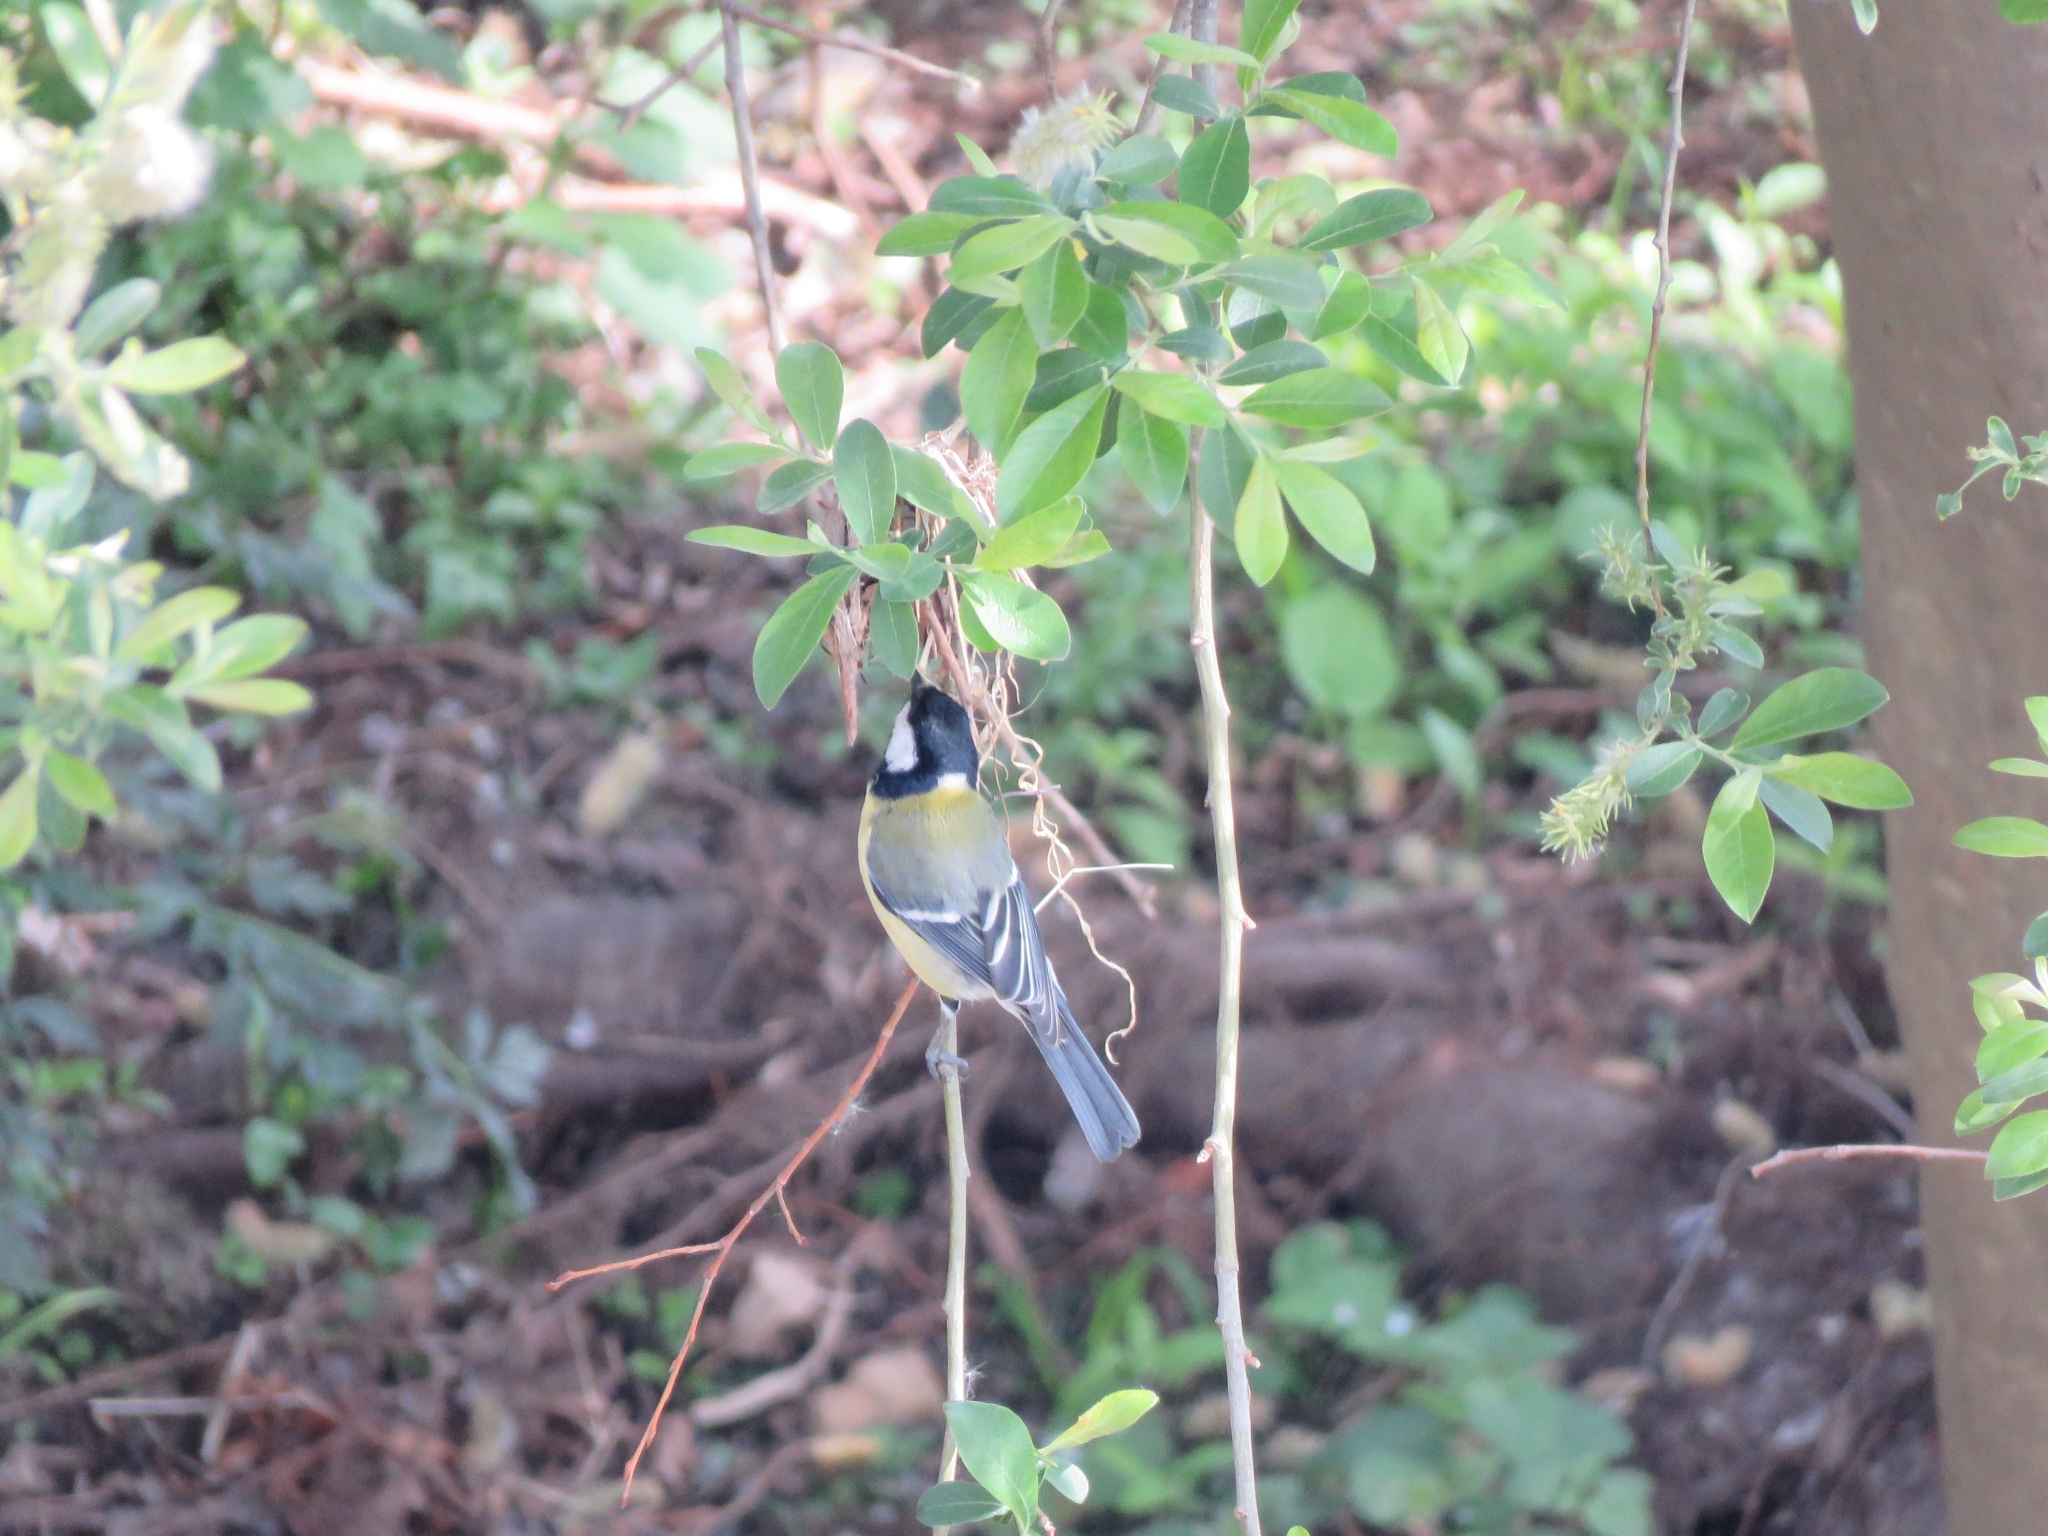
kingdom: Animalia
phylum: Chordata
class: Aves
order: Passeriformes
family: Paridae
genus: Parus
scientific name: Parus major
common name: Great tit
